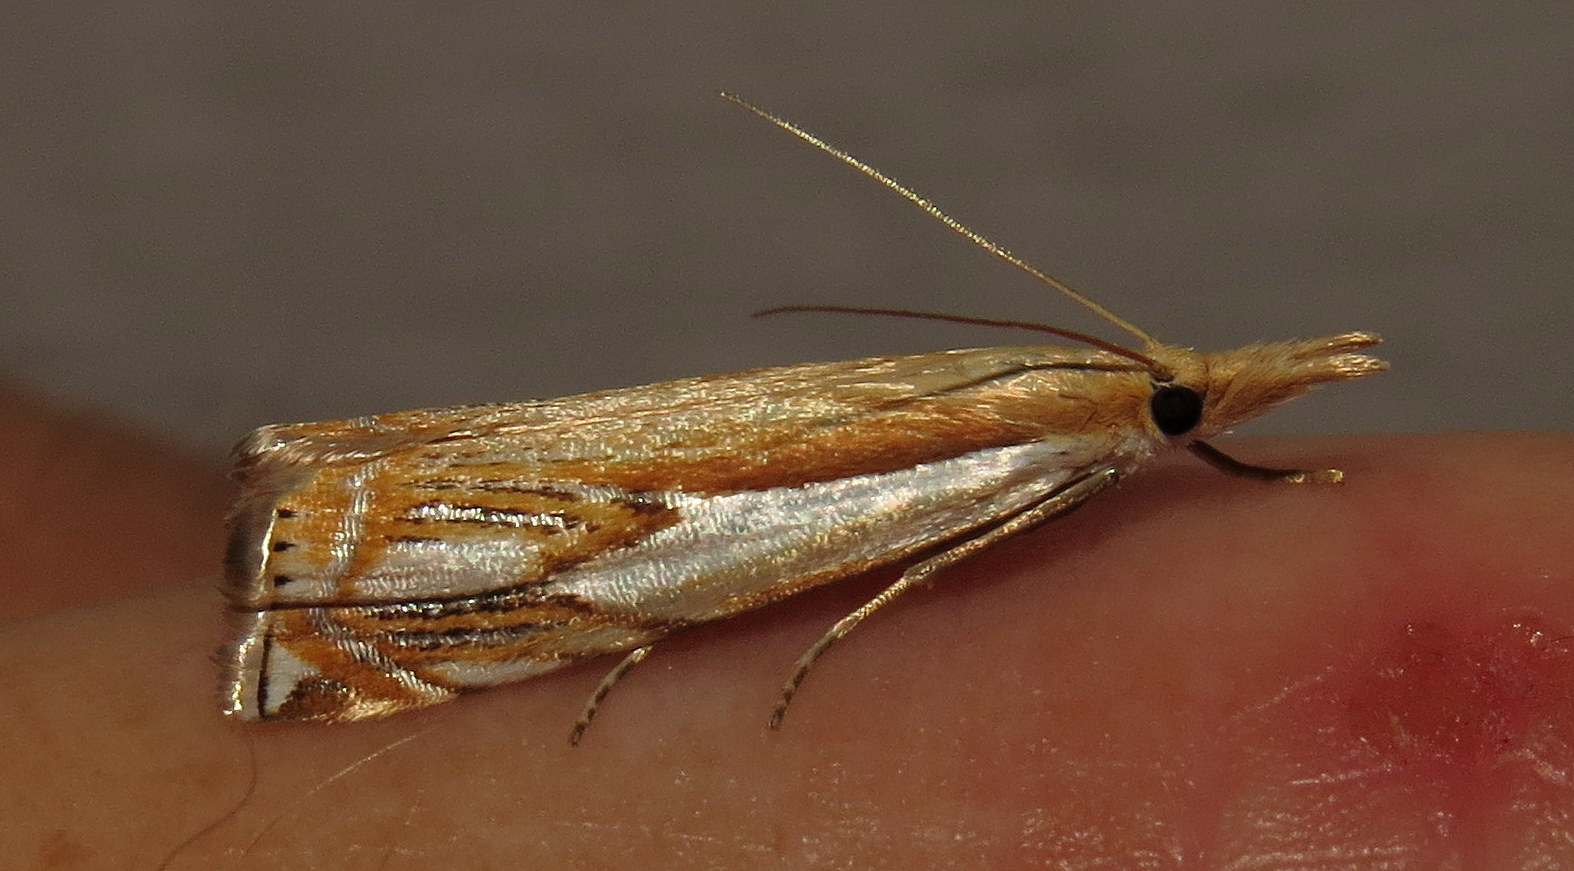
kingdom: Animalia
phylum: Arthropoda
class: Insecta
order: Lepidoptera
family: Crambidae
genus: Crambus
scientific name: Crambus agitatellus
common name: Double-banded grass-veneer
